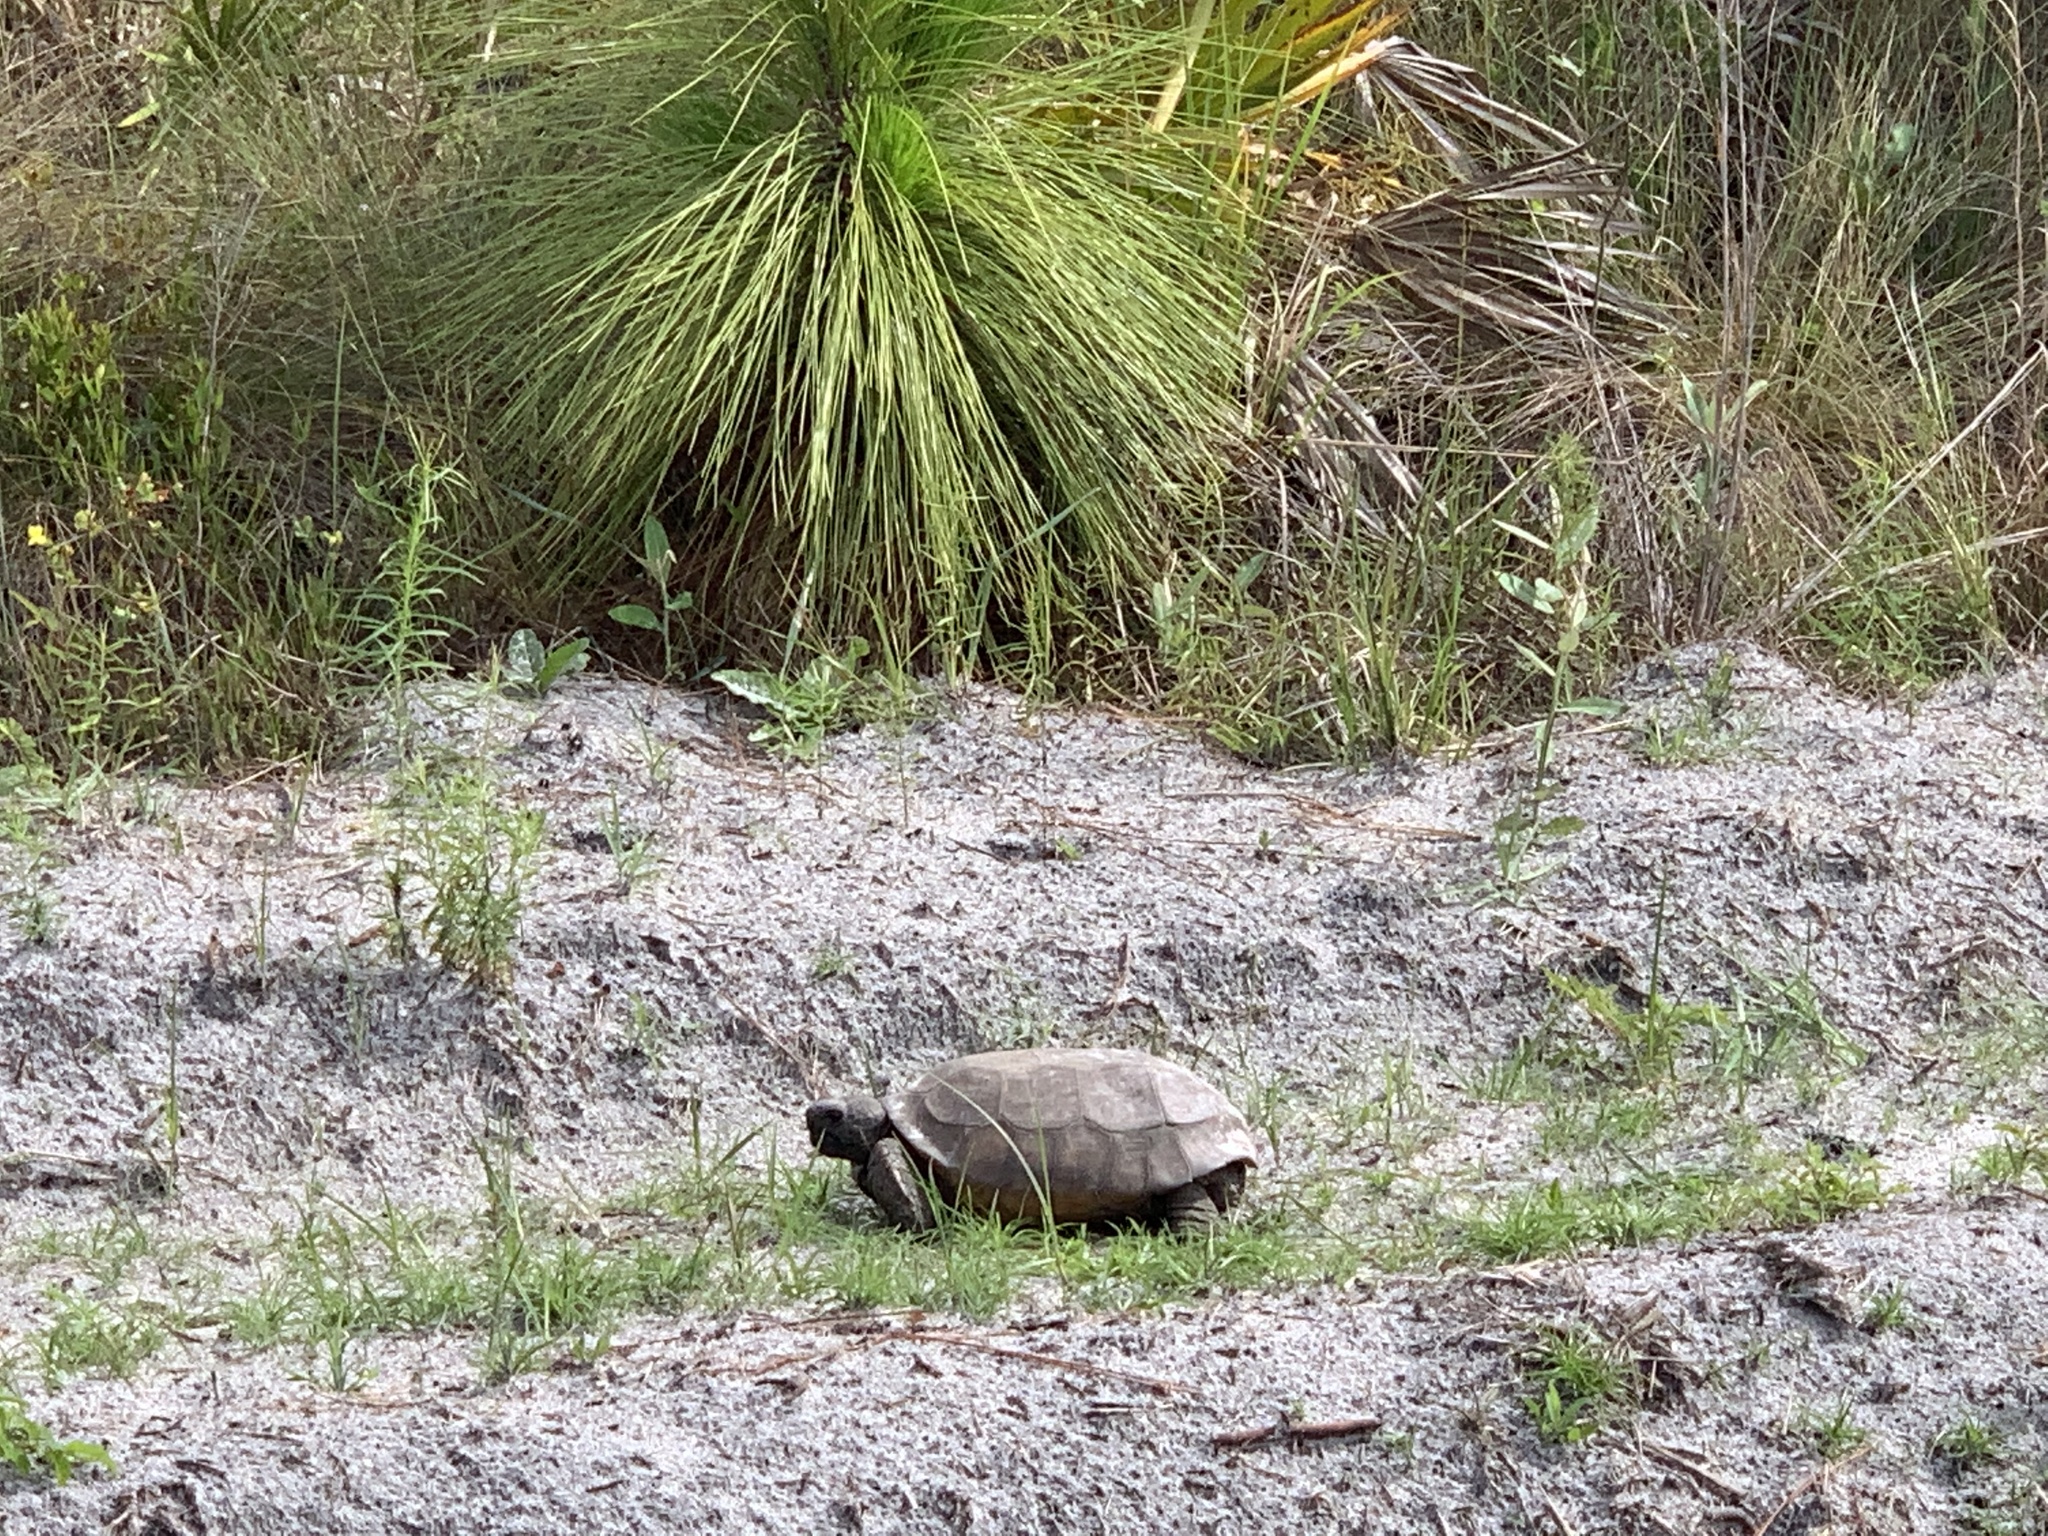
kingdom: Animalia
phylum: Chordata
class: Testudines
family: Testudinidae
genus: Gopherus
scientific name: Gopherus polyphemus
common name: Florida gopher tortoise
